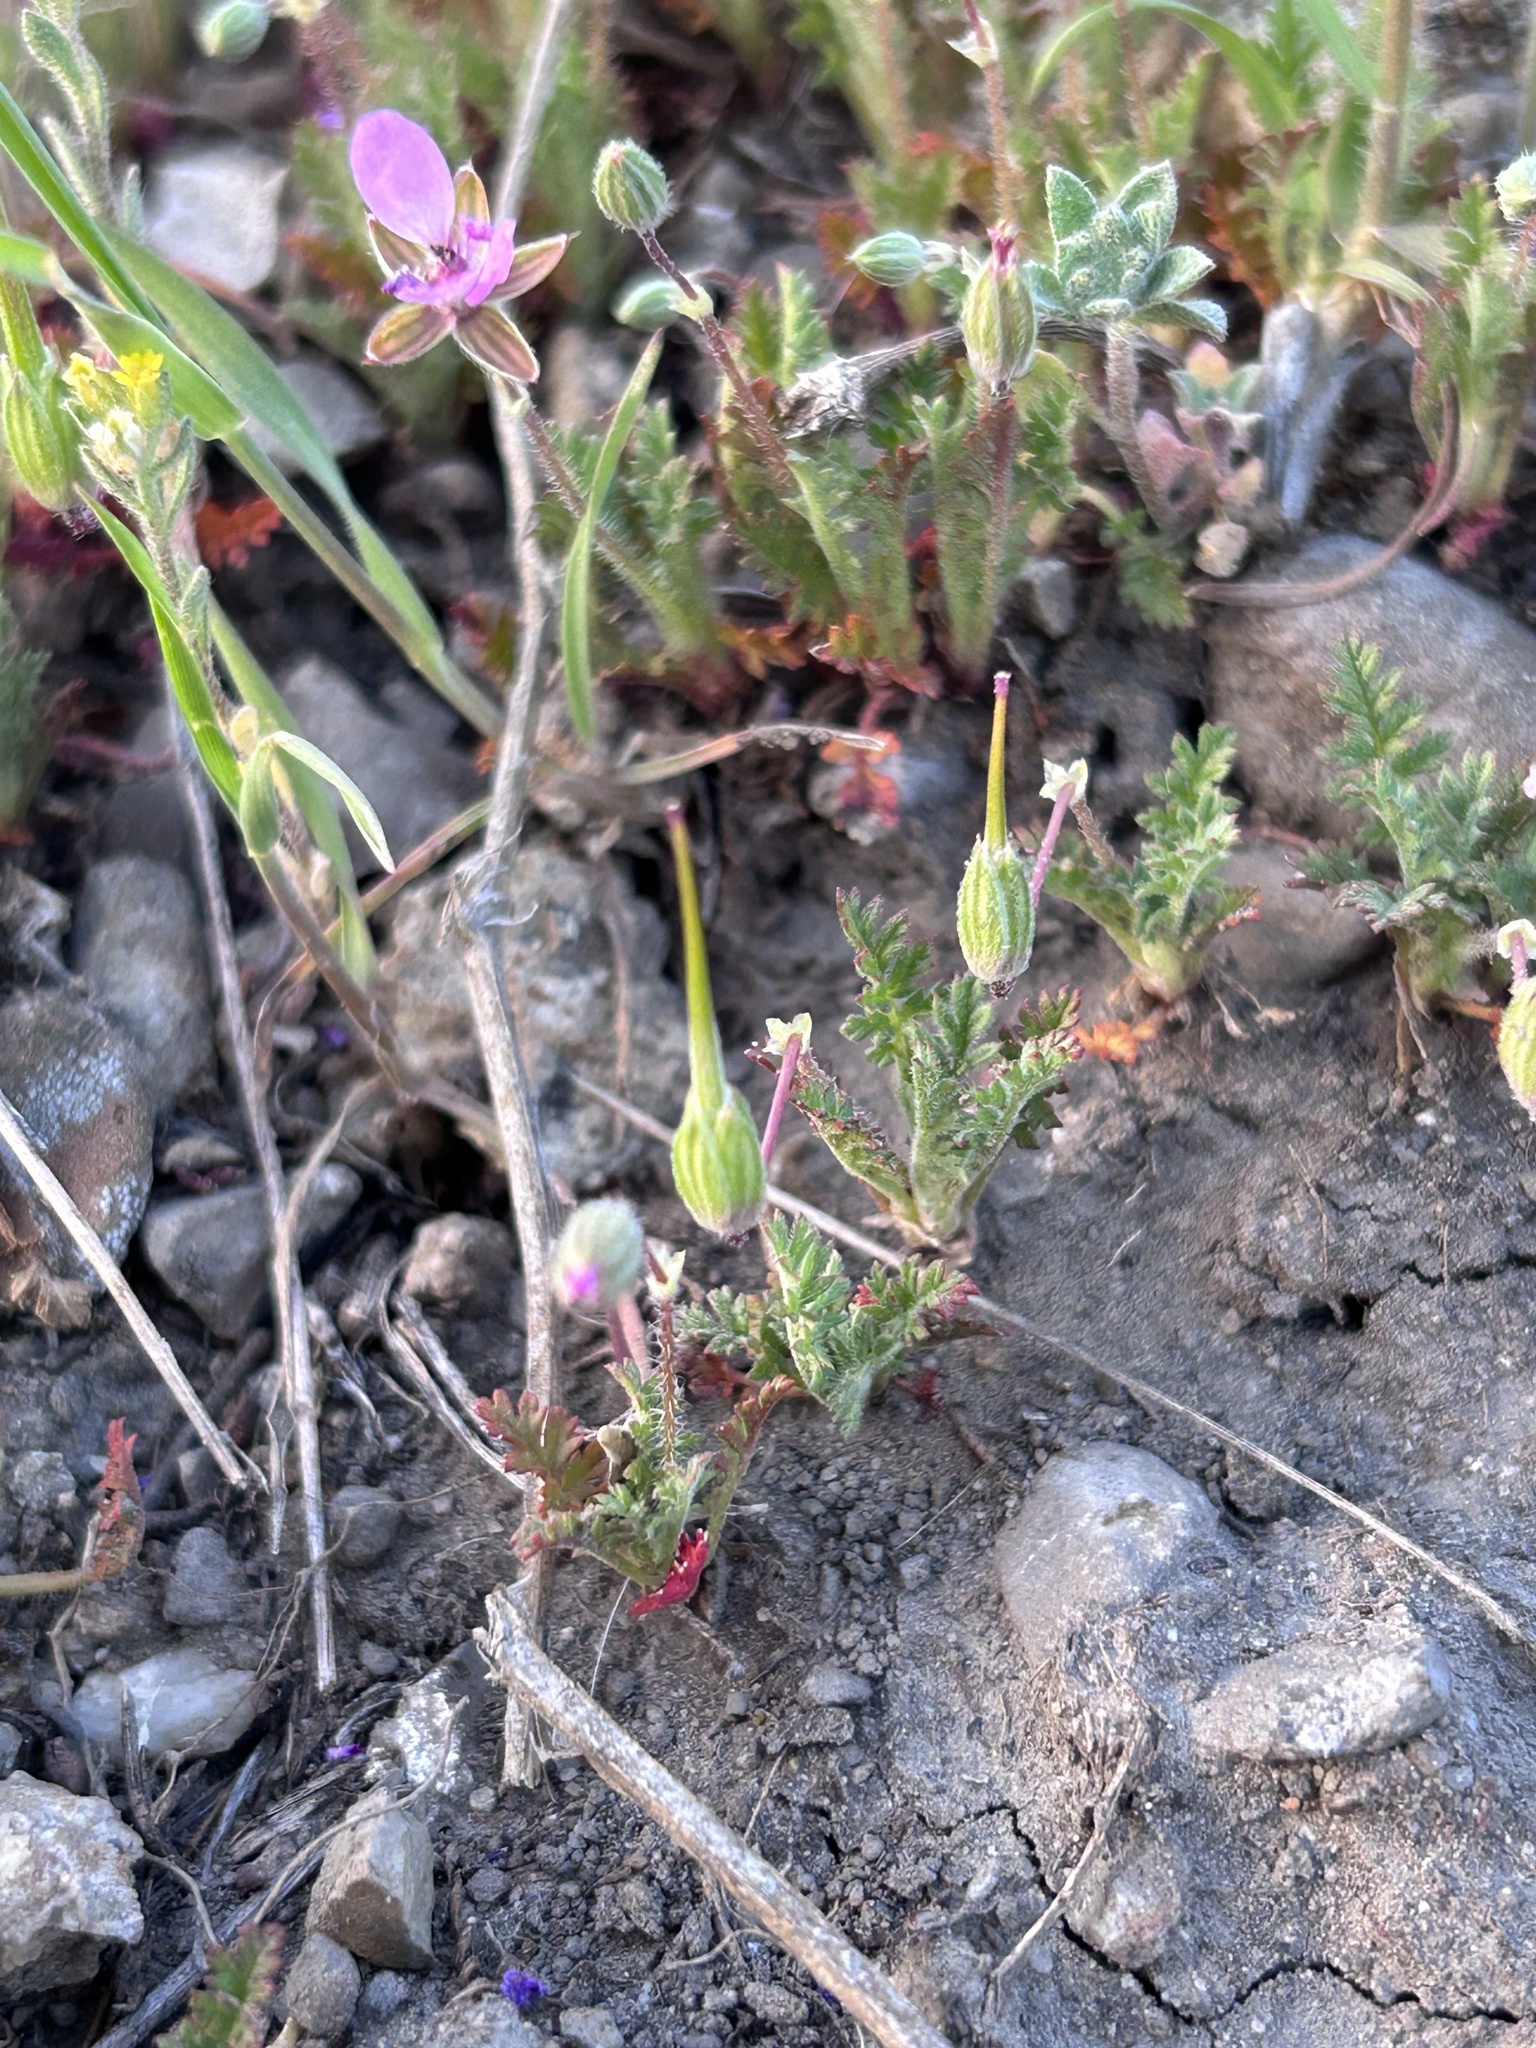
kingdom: Plantae
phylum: Tracheophyta
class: Magnoliopsida
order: Geraniales
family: Geraniaceae
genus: Erodium
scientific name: Erodium cicutarium
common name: Common stork's-bill
